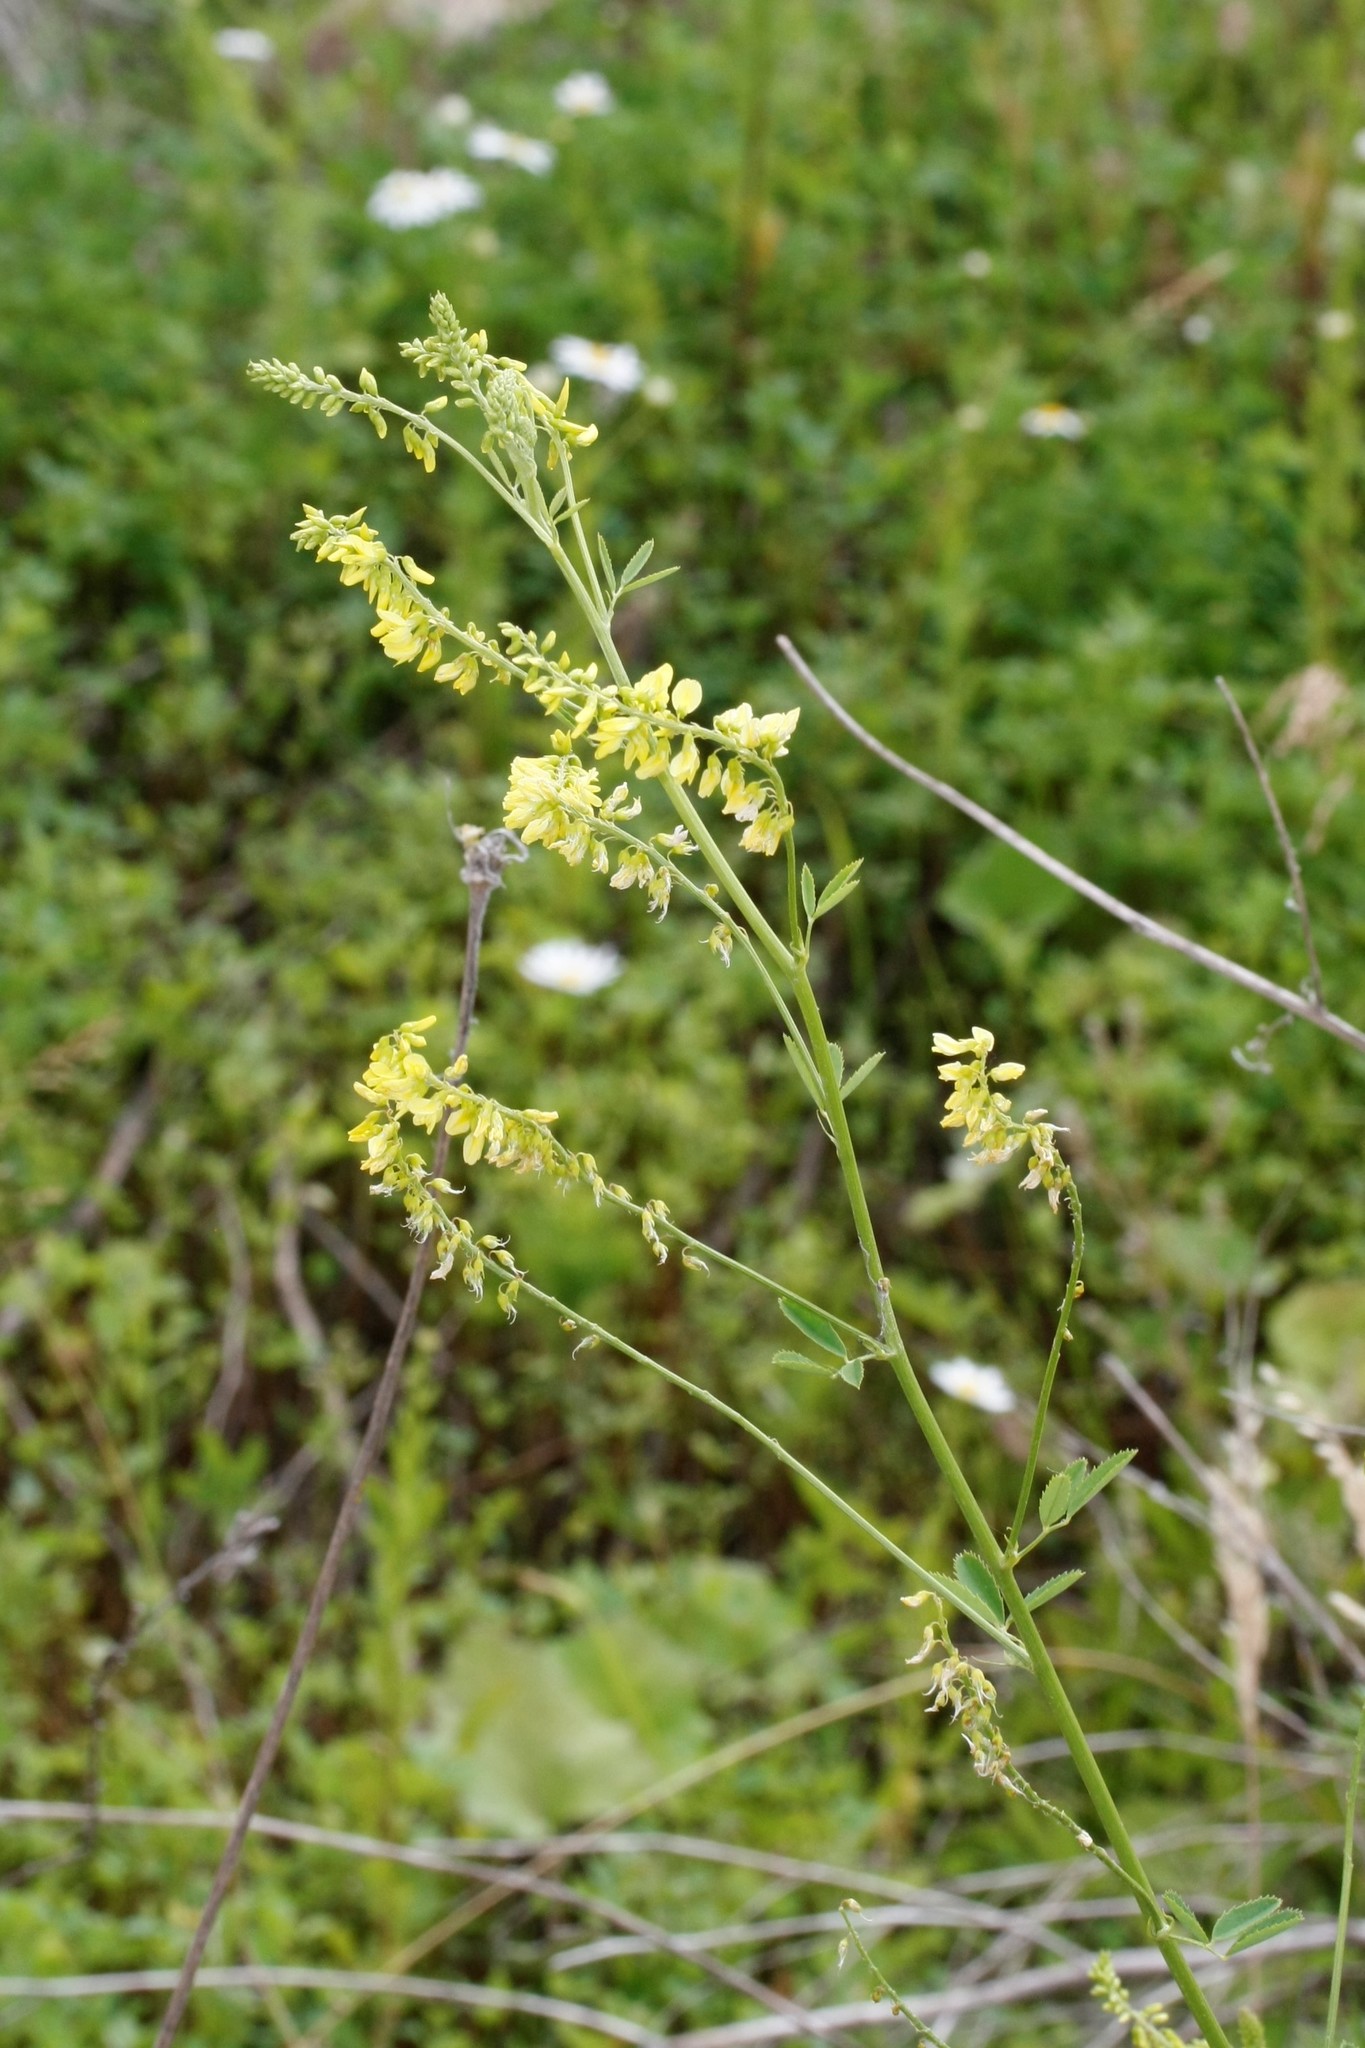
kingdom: Plantae
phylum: Tracheophyta
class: Magnoliopsida
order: Fabales
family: Fabaceae
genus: Melilotus
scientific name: Melilotus officinalis
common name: Sweetclover
